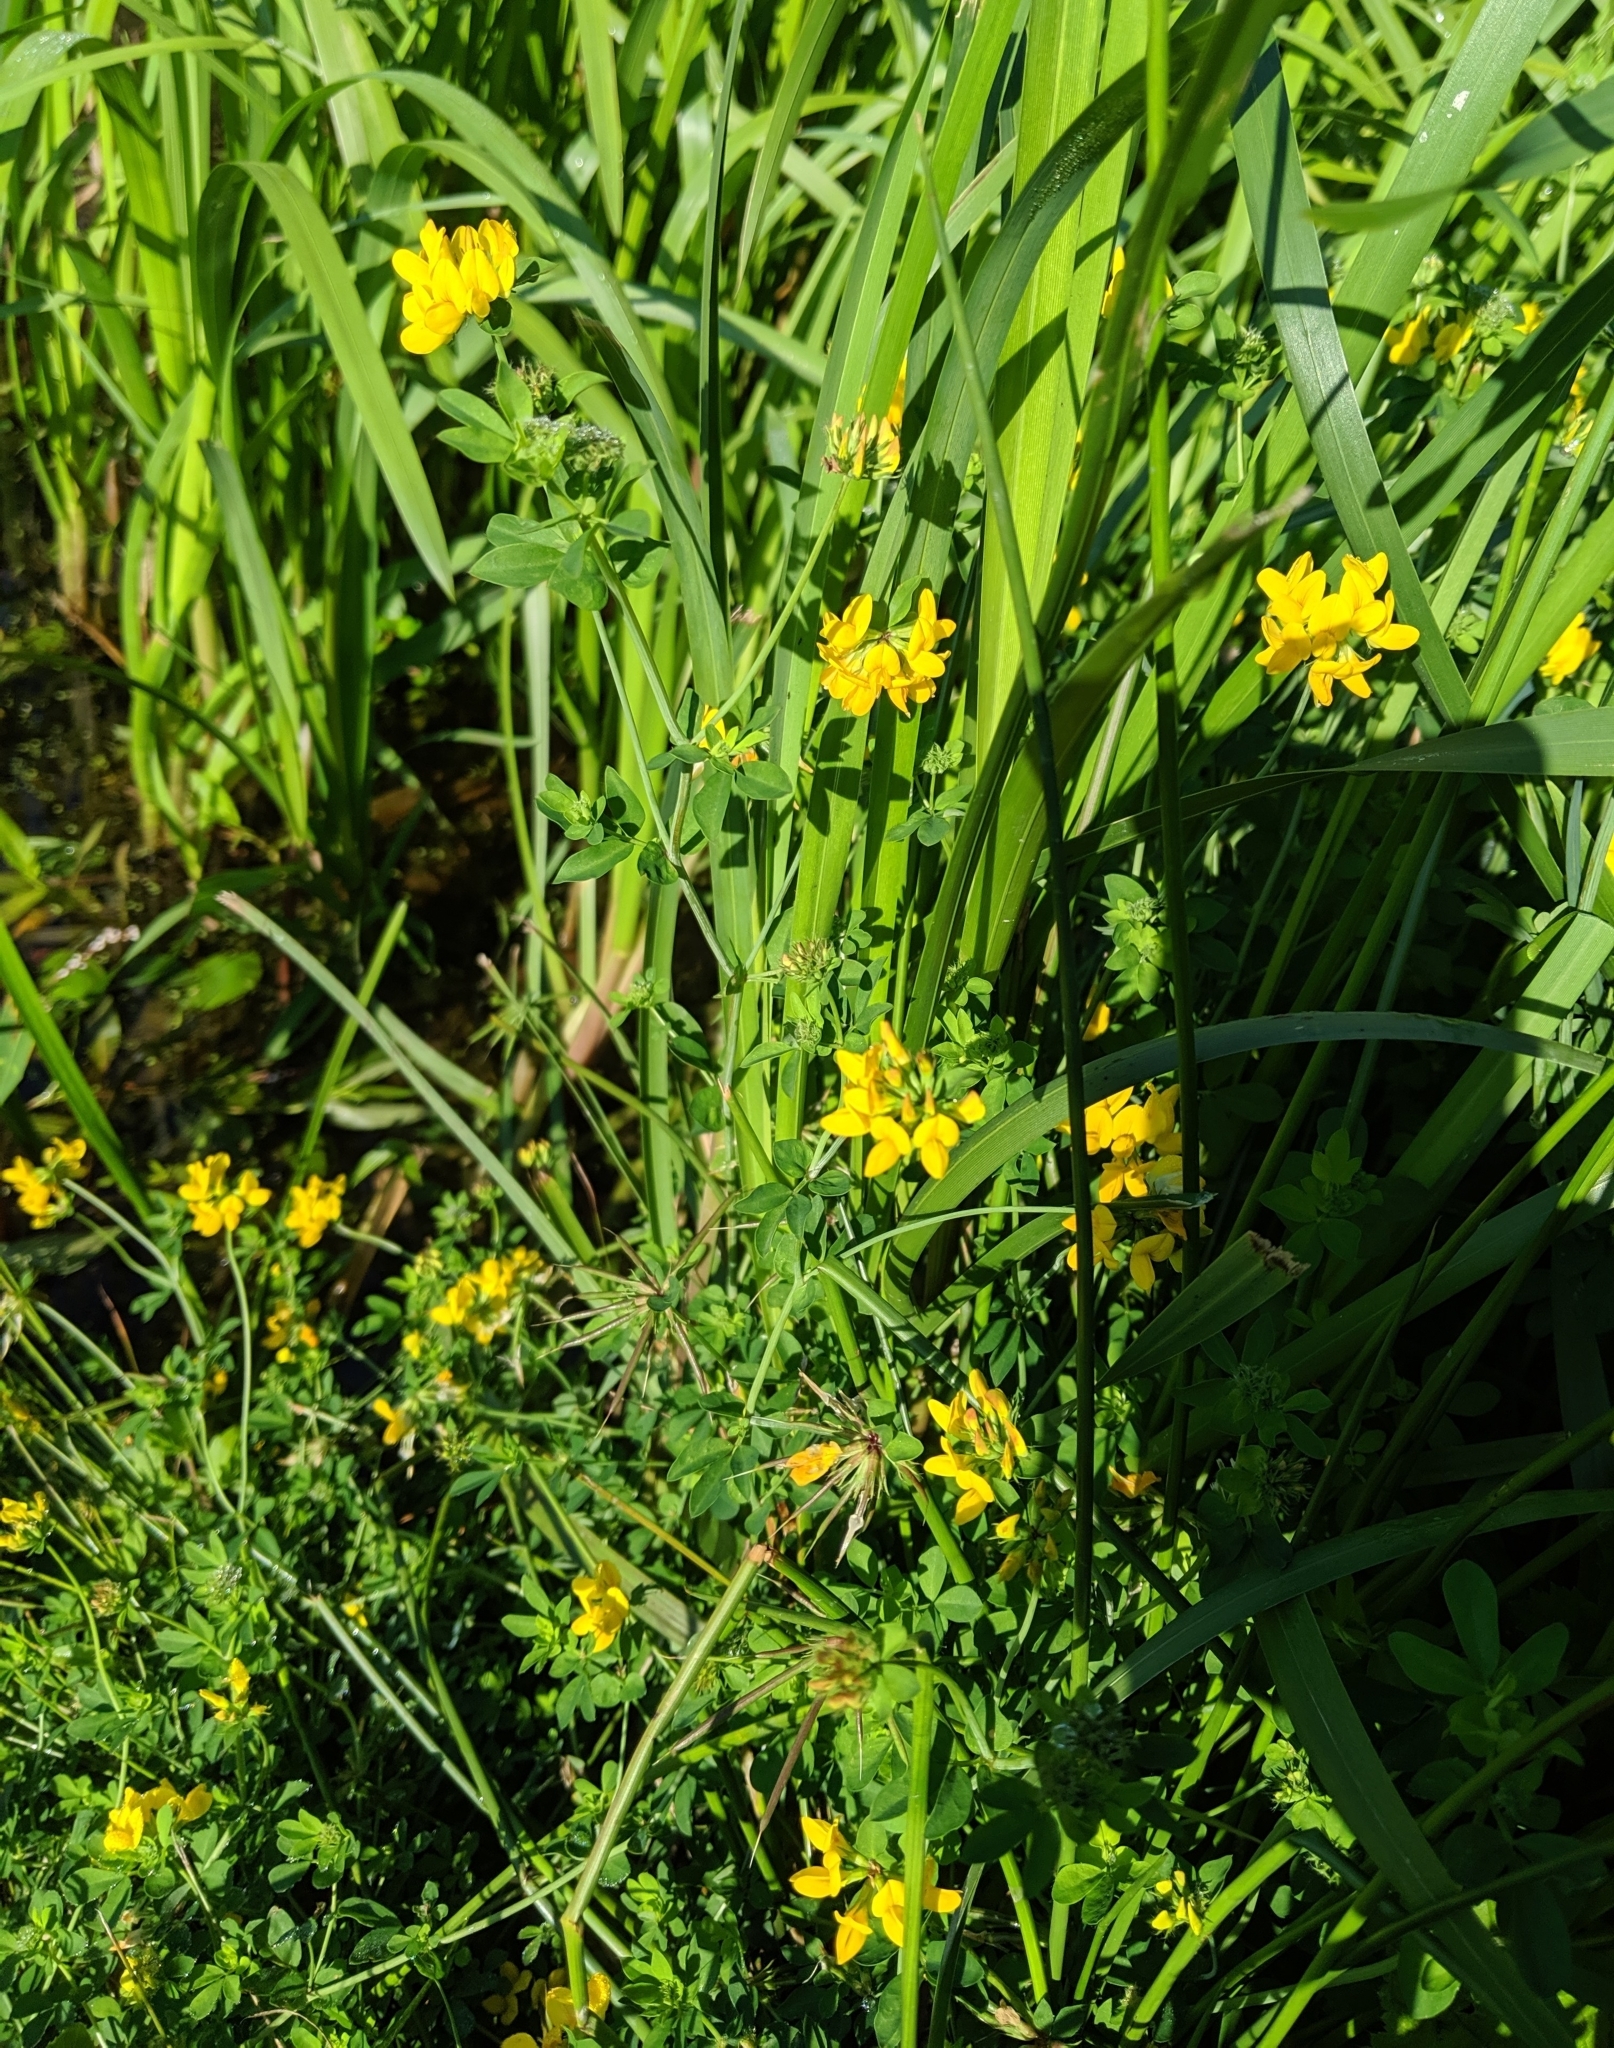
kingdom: Plantae
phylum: Tracheophyta
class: Magnoliopsida
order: Fabales
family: Fabaceae
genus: Lotus
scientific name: Lotus pedunculatus
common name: Greater birdsfoot-trefoil
